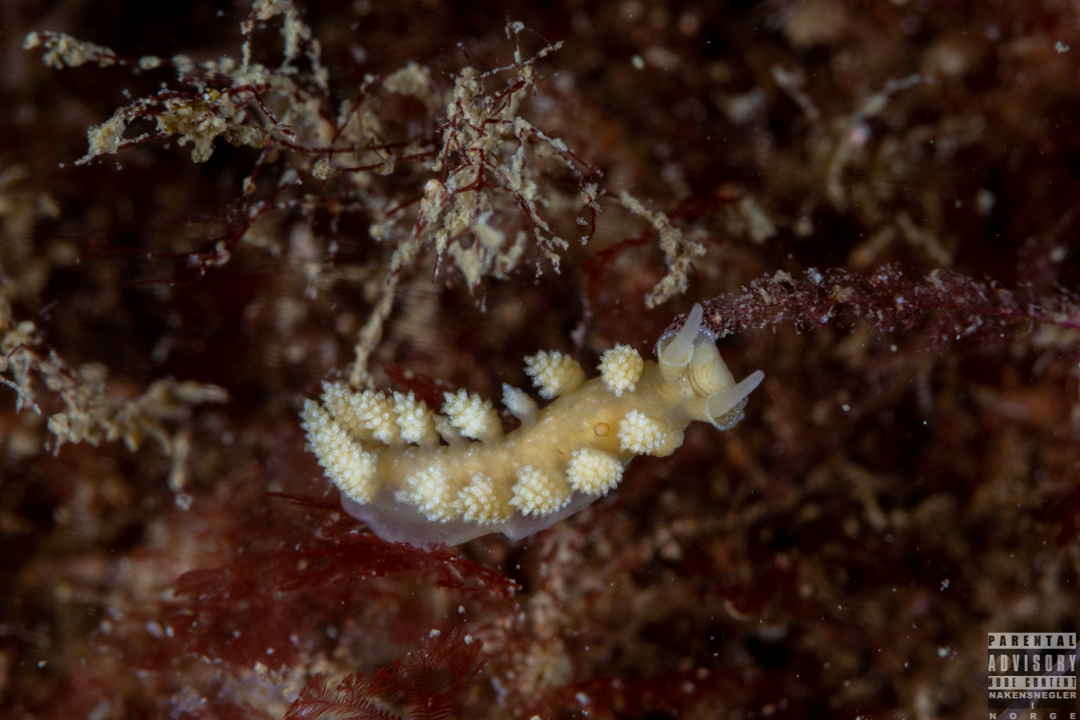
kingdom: Animalia
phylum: Mollusca
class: Gastropoda
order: Nudibranchia
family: Dotidae
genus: Doto
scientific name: Doto fragilis
